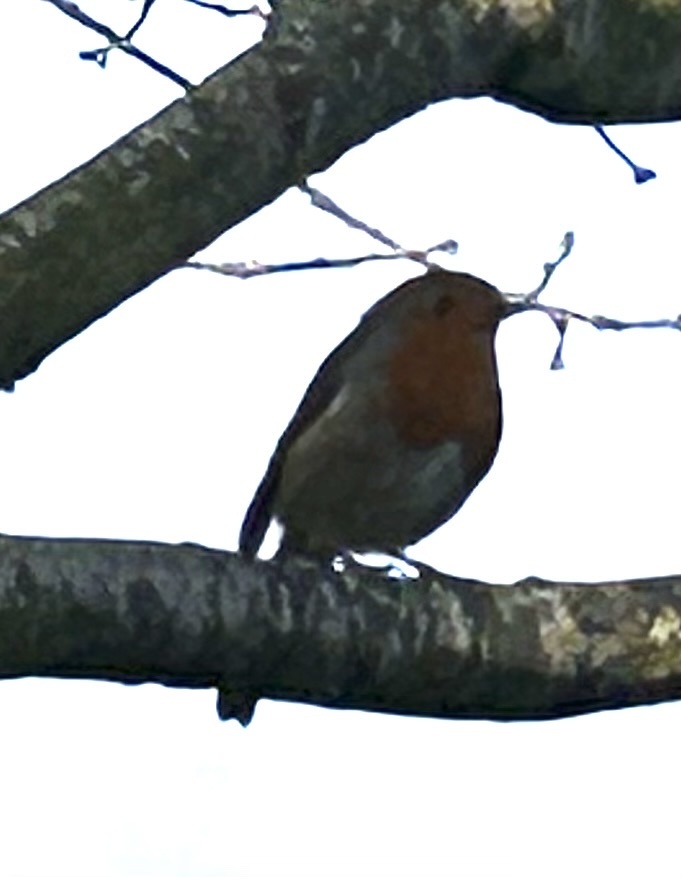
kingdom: Animalia
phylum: Chordata
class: Aves
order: Passeriformes
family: Muscicapidae
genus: Erithacus
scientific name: Erithacus rubecula
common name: European robin
